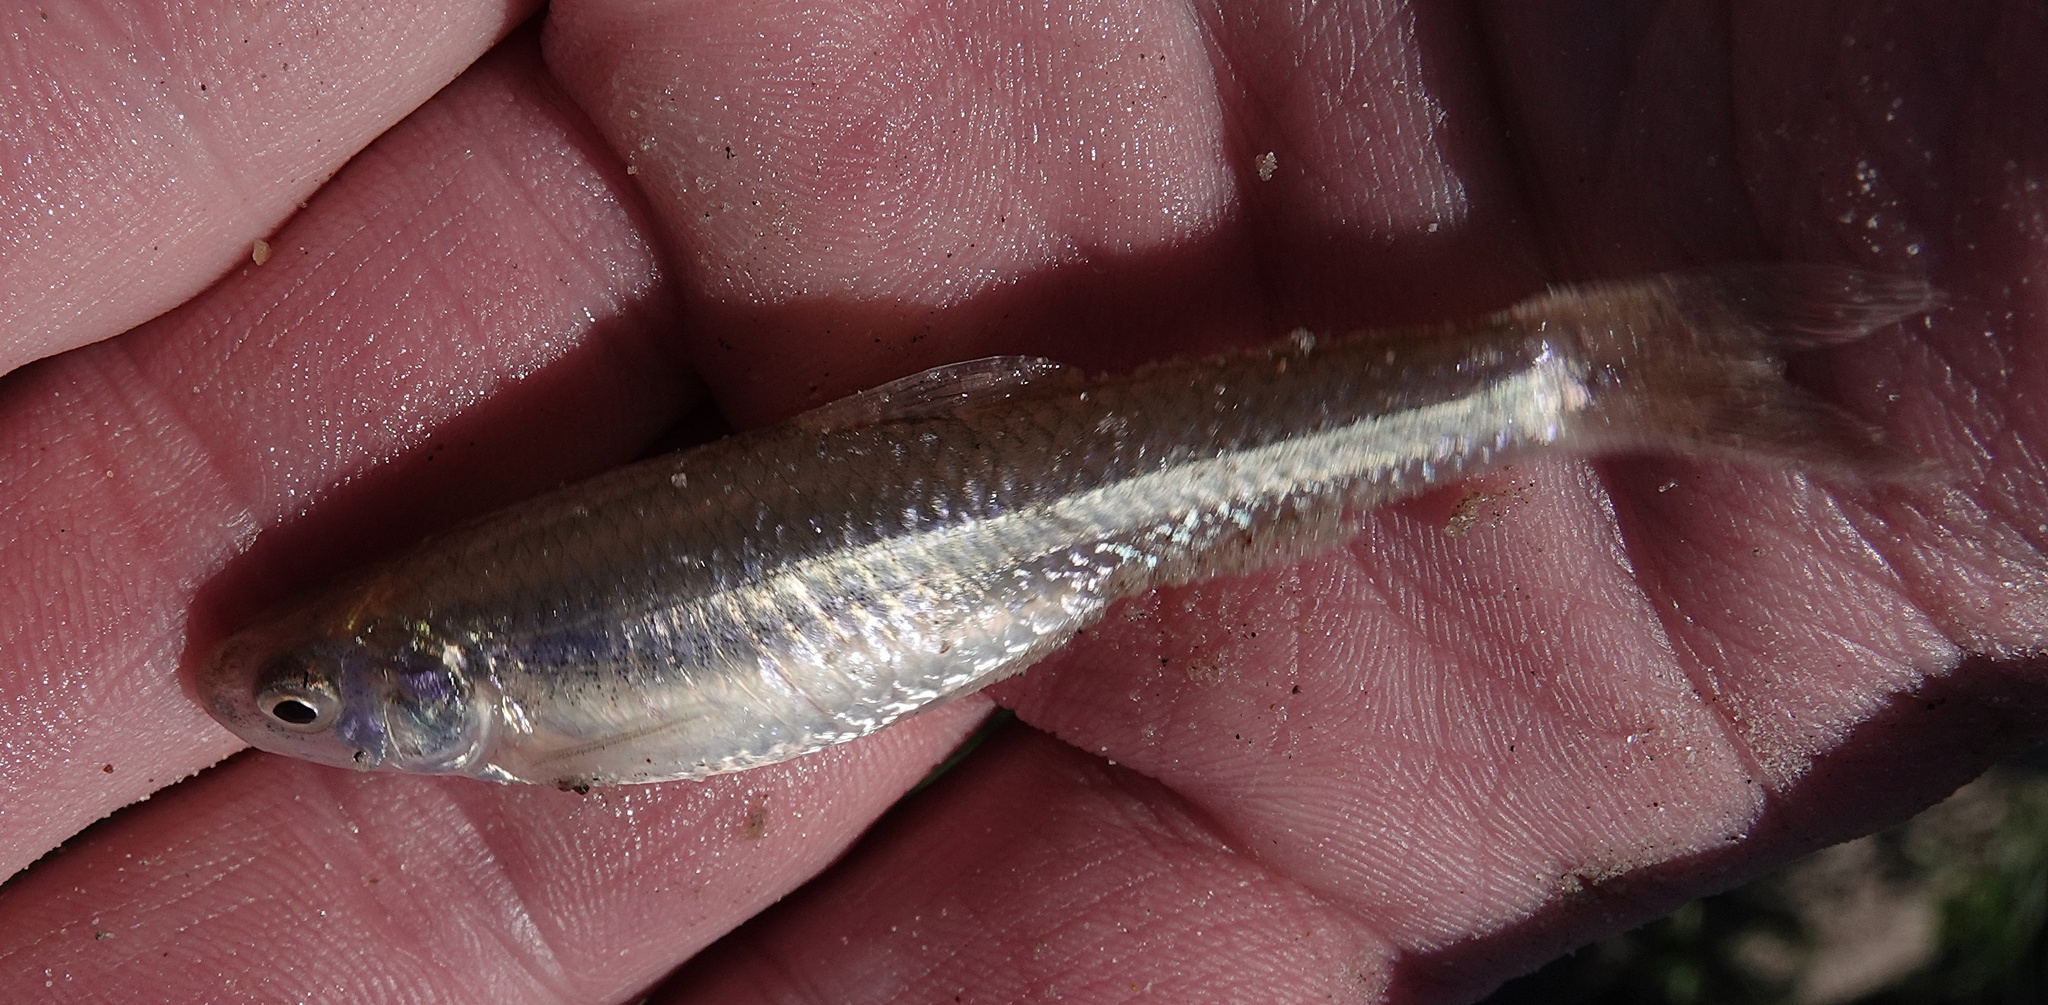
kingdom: Animalia
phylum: Chordata
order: Cypriniformes
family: Cyprinidae
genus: Notropis
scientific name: Notropis
